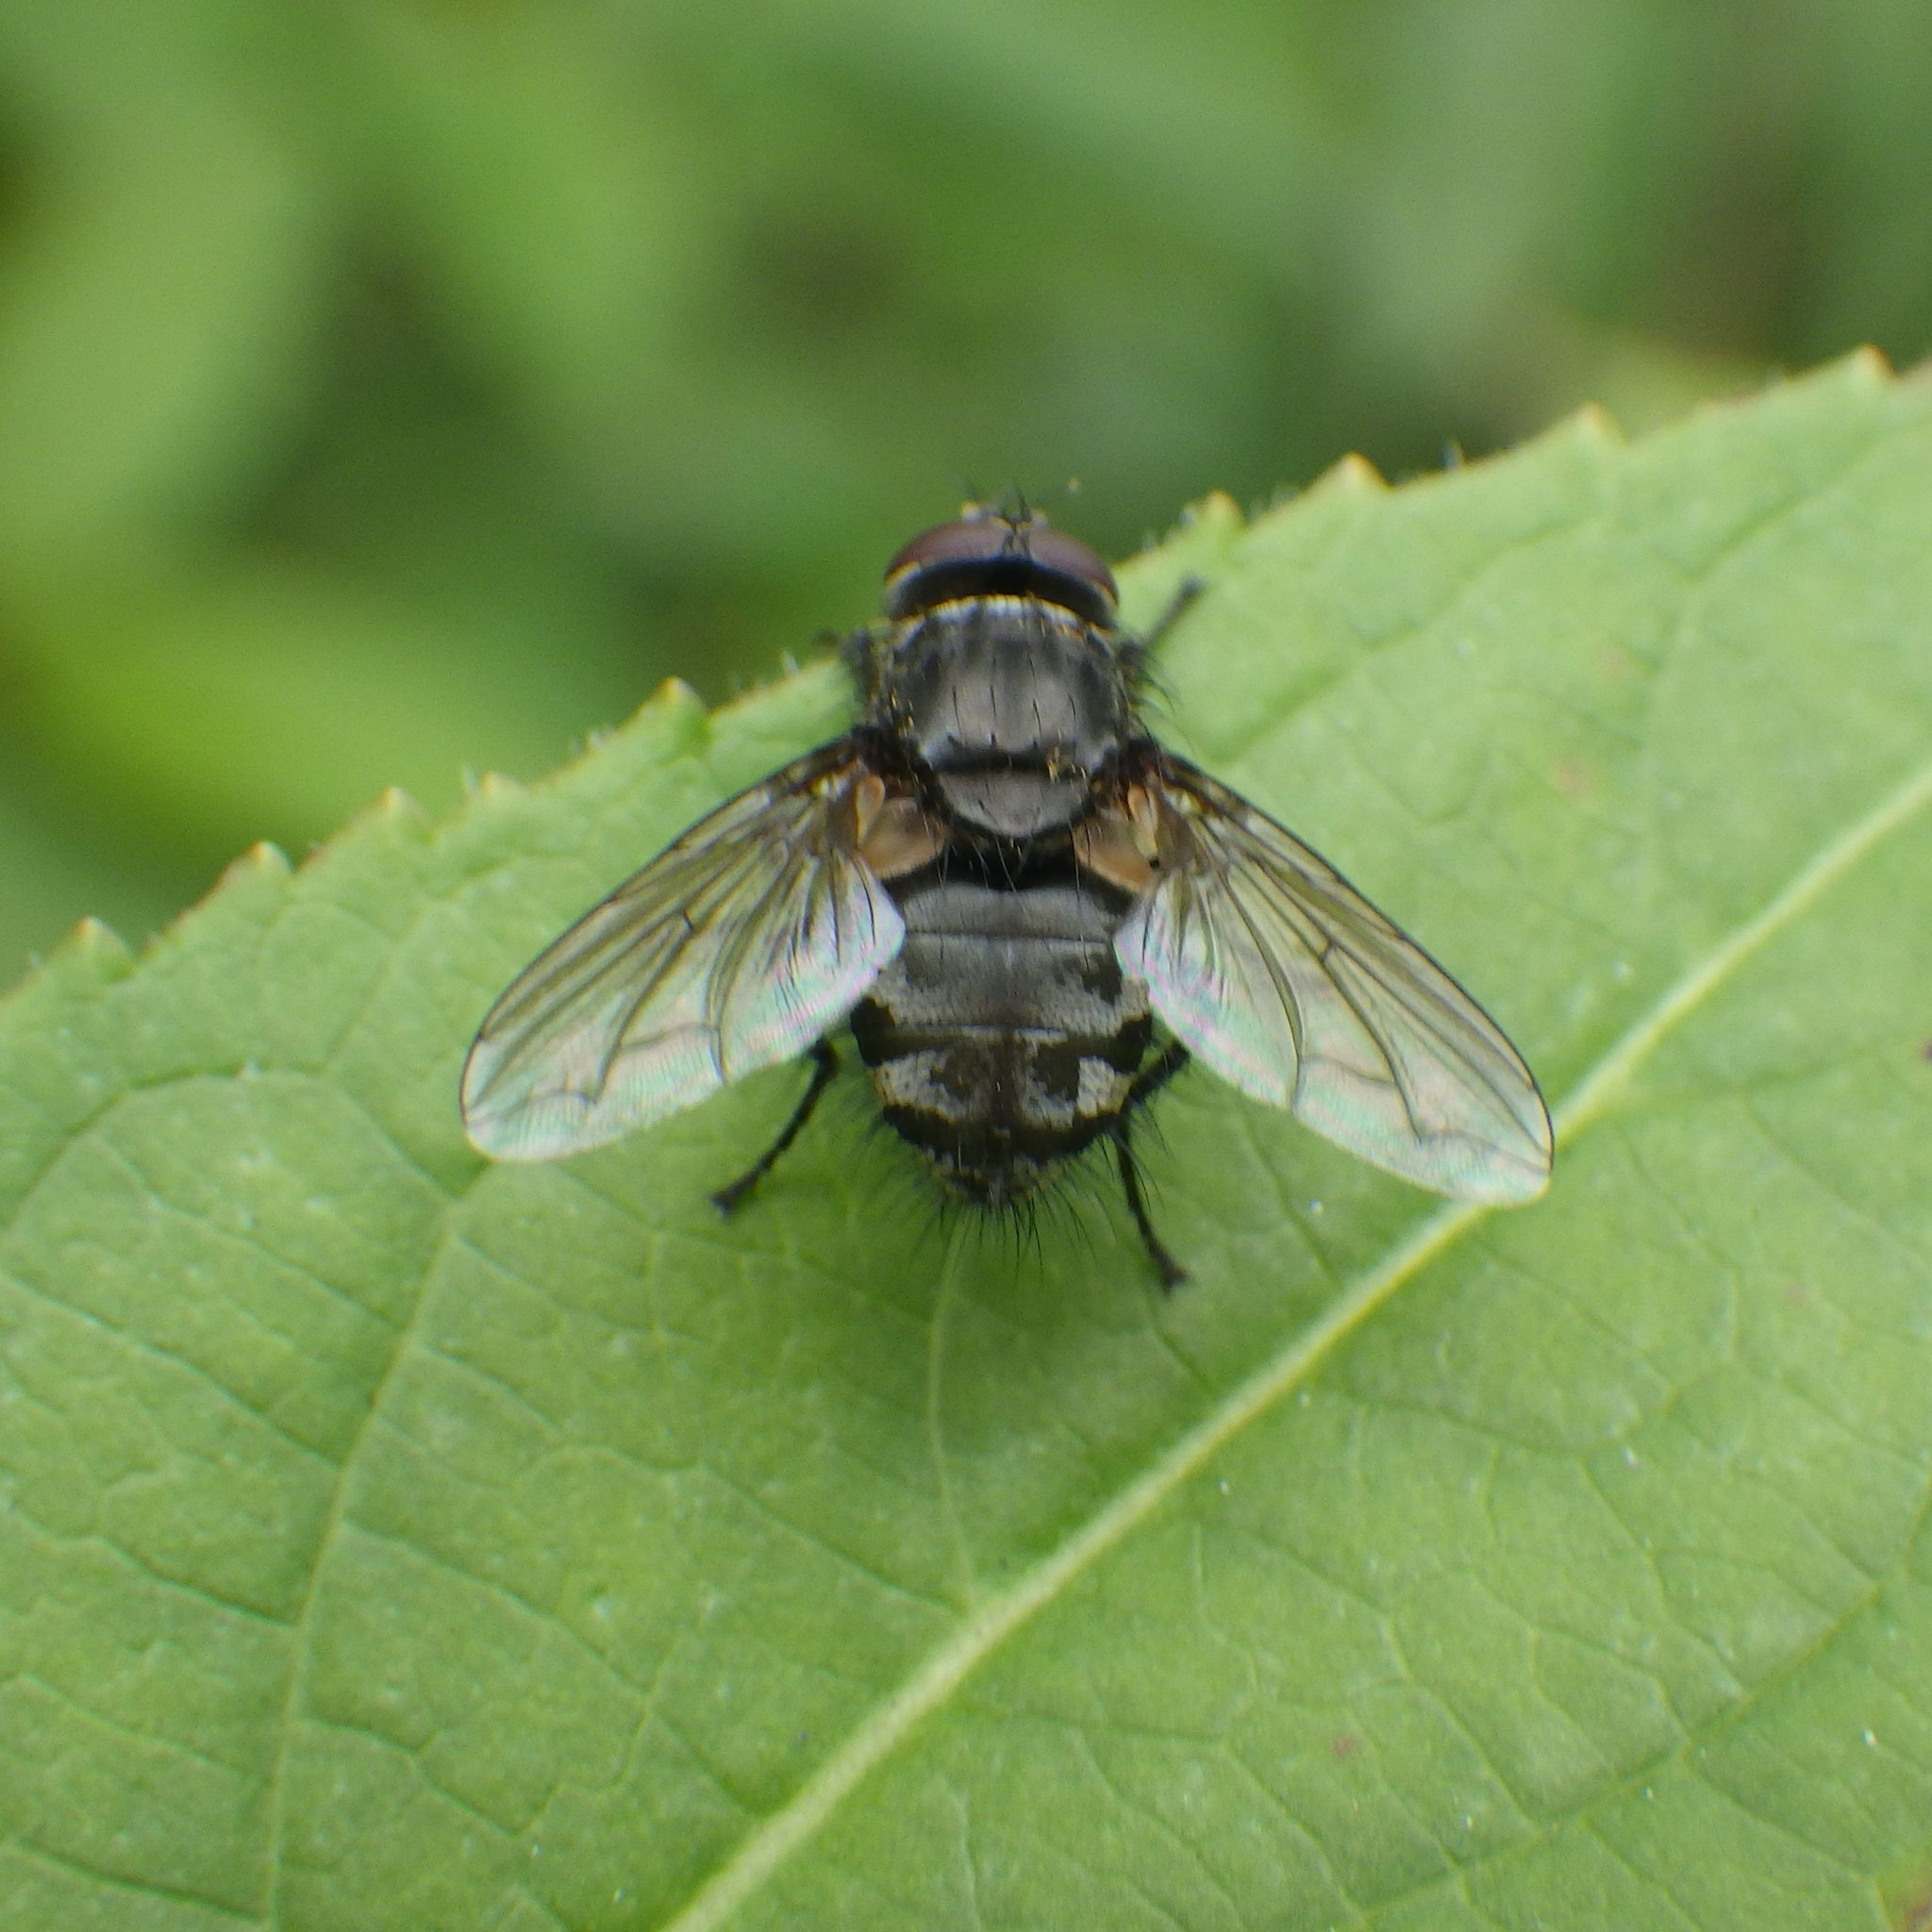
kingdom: Animalia
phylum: Arthropoda
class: Insecta
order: Diptera
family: Polleniidae
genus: Pollenia
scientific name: Pollenia
